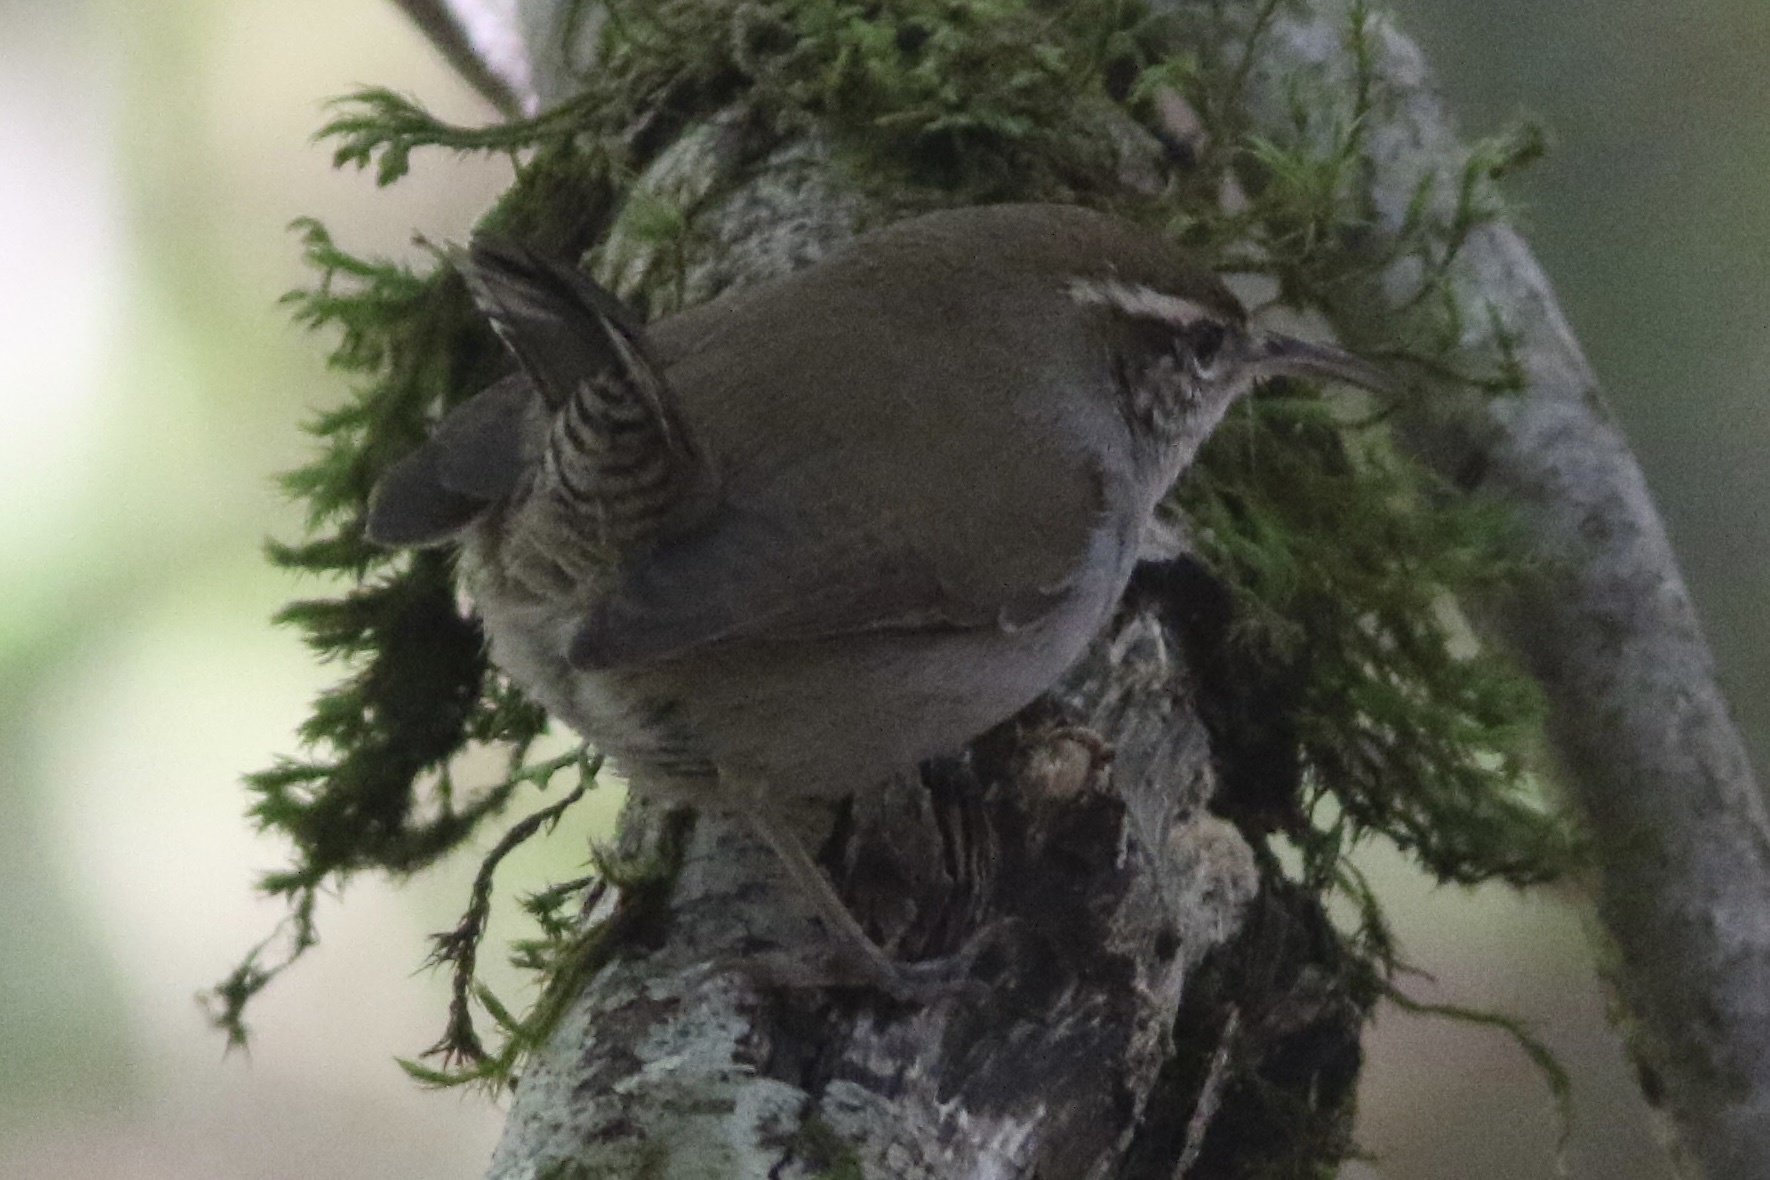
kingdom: Animalia
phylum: Chordata
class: Aves
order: Passeriformes
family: Troglodytidae
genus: Thryomanes
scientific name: Thryomanes bewickii
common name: Bewick's wren
